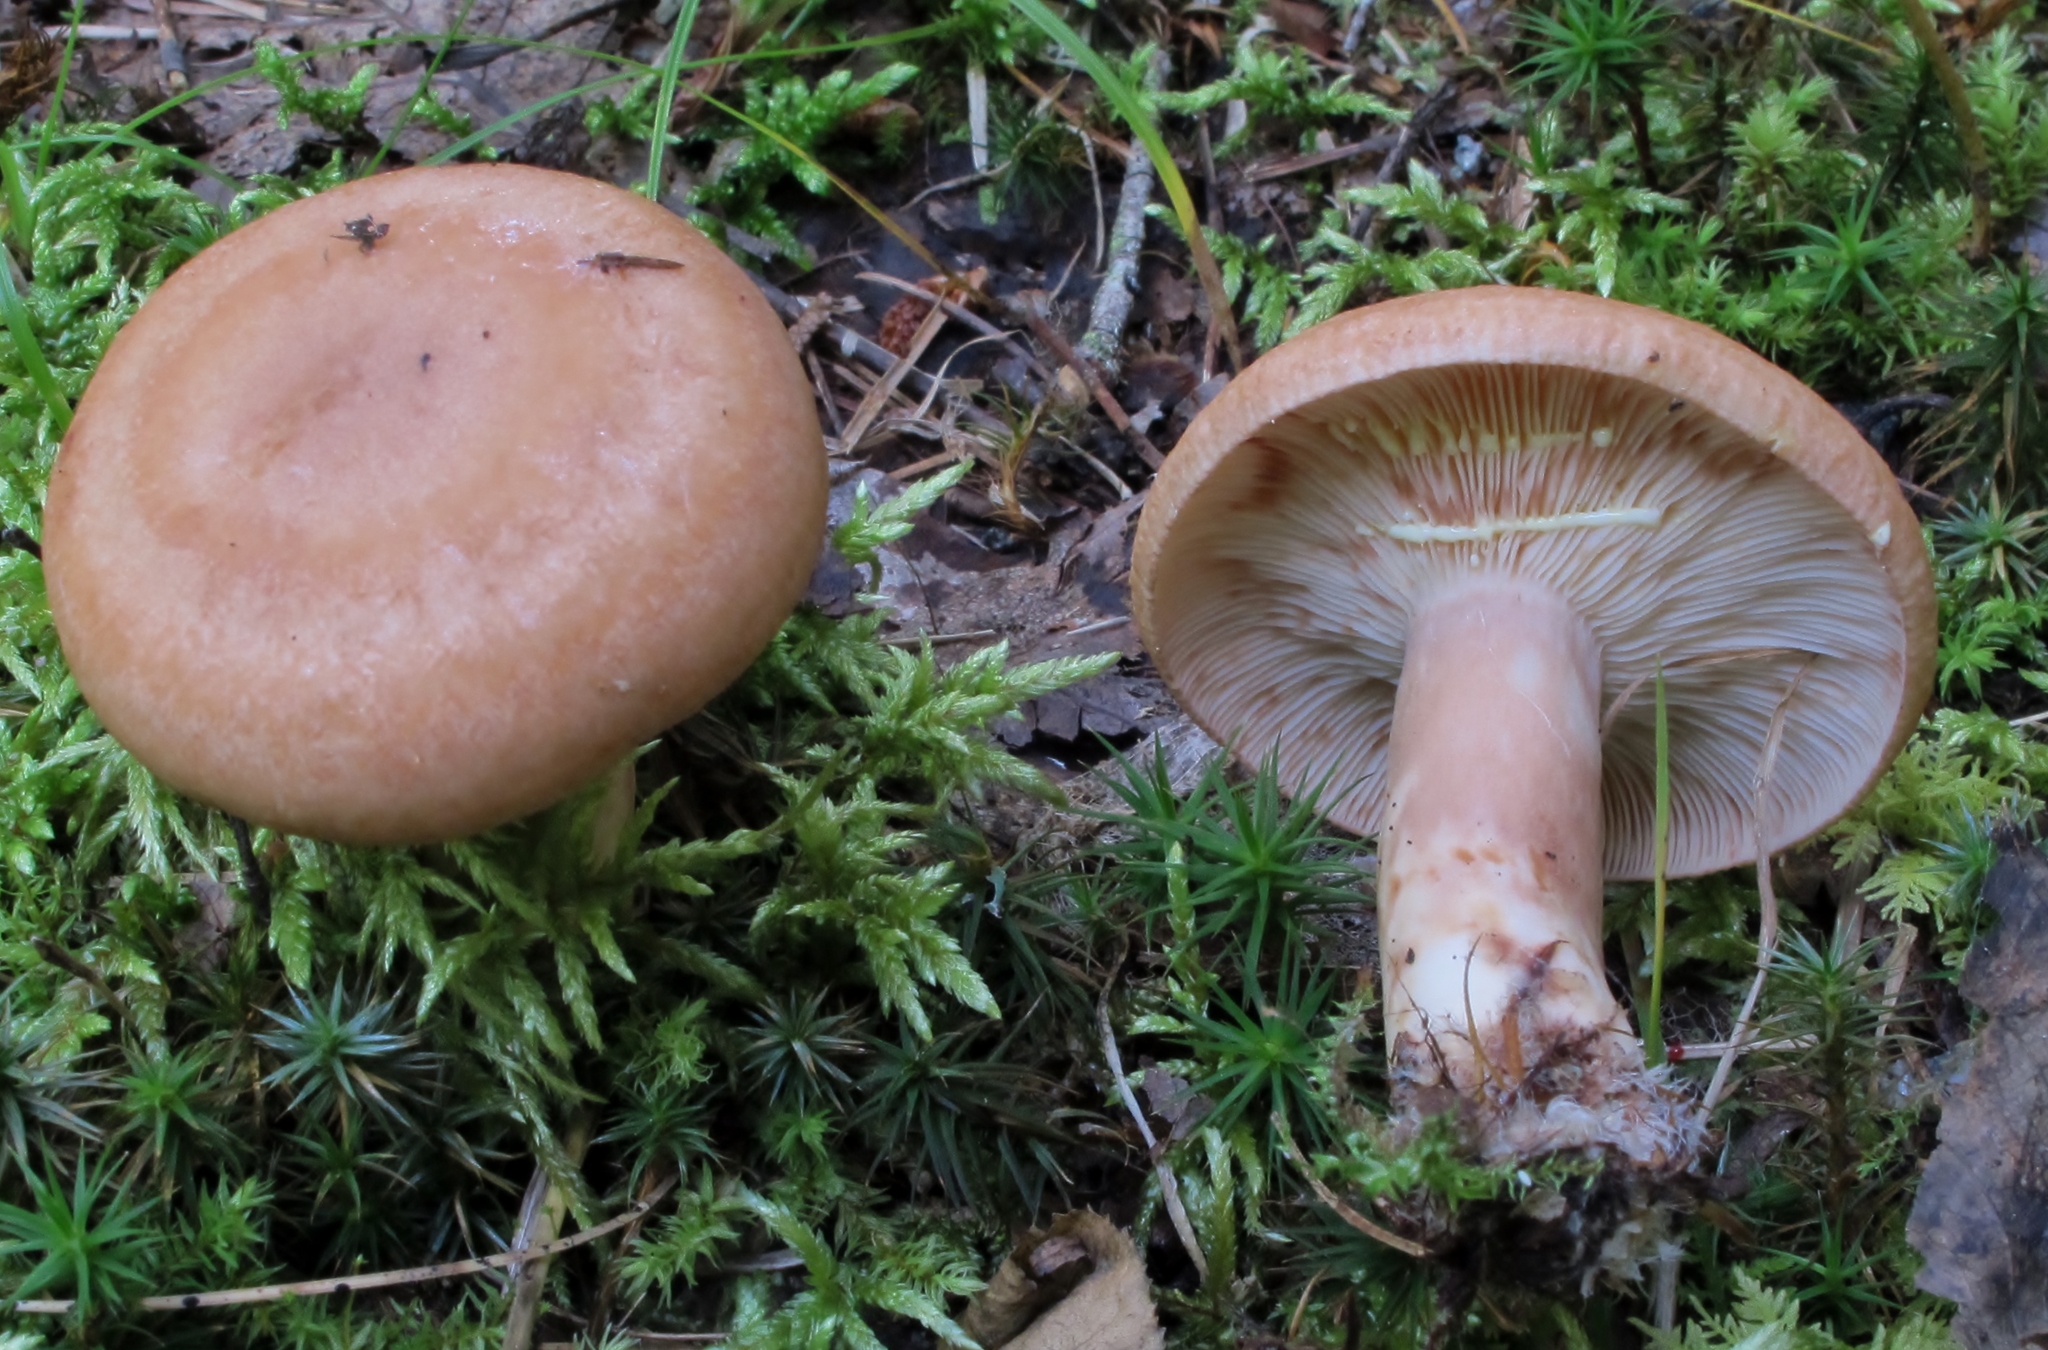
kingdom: Fungi
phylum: Basidiomycota
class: Agaricomycetes
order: Russulales
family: Russulaceae
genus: Lactarius
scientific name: Lactarius vinaceorufescens
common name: Yellow-latex milkcap
